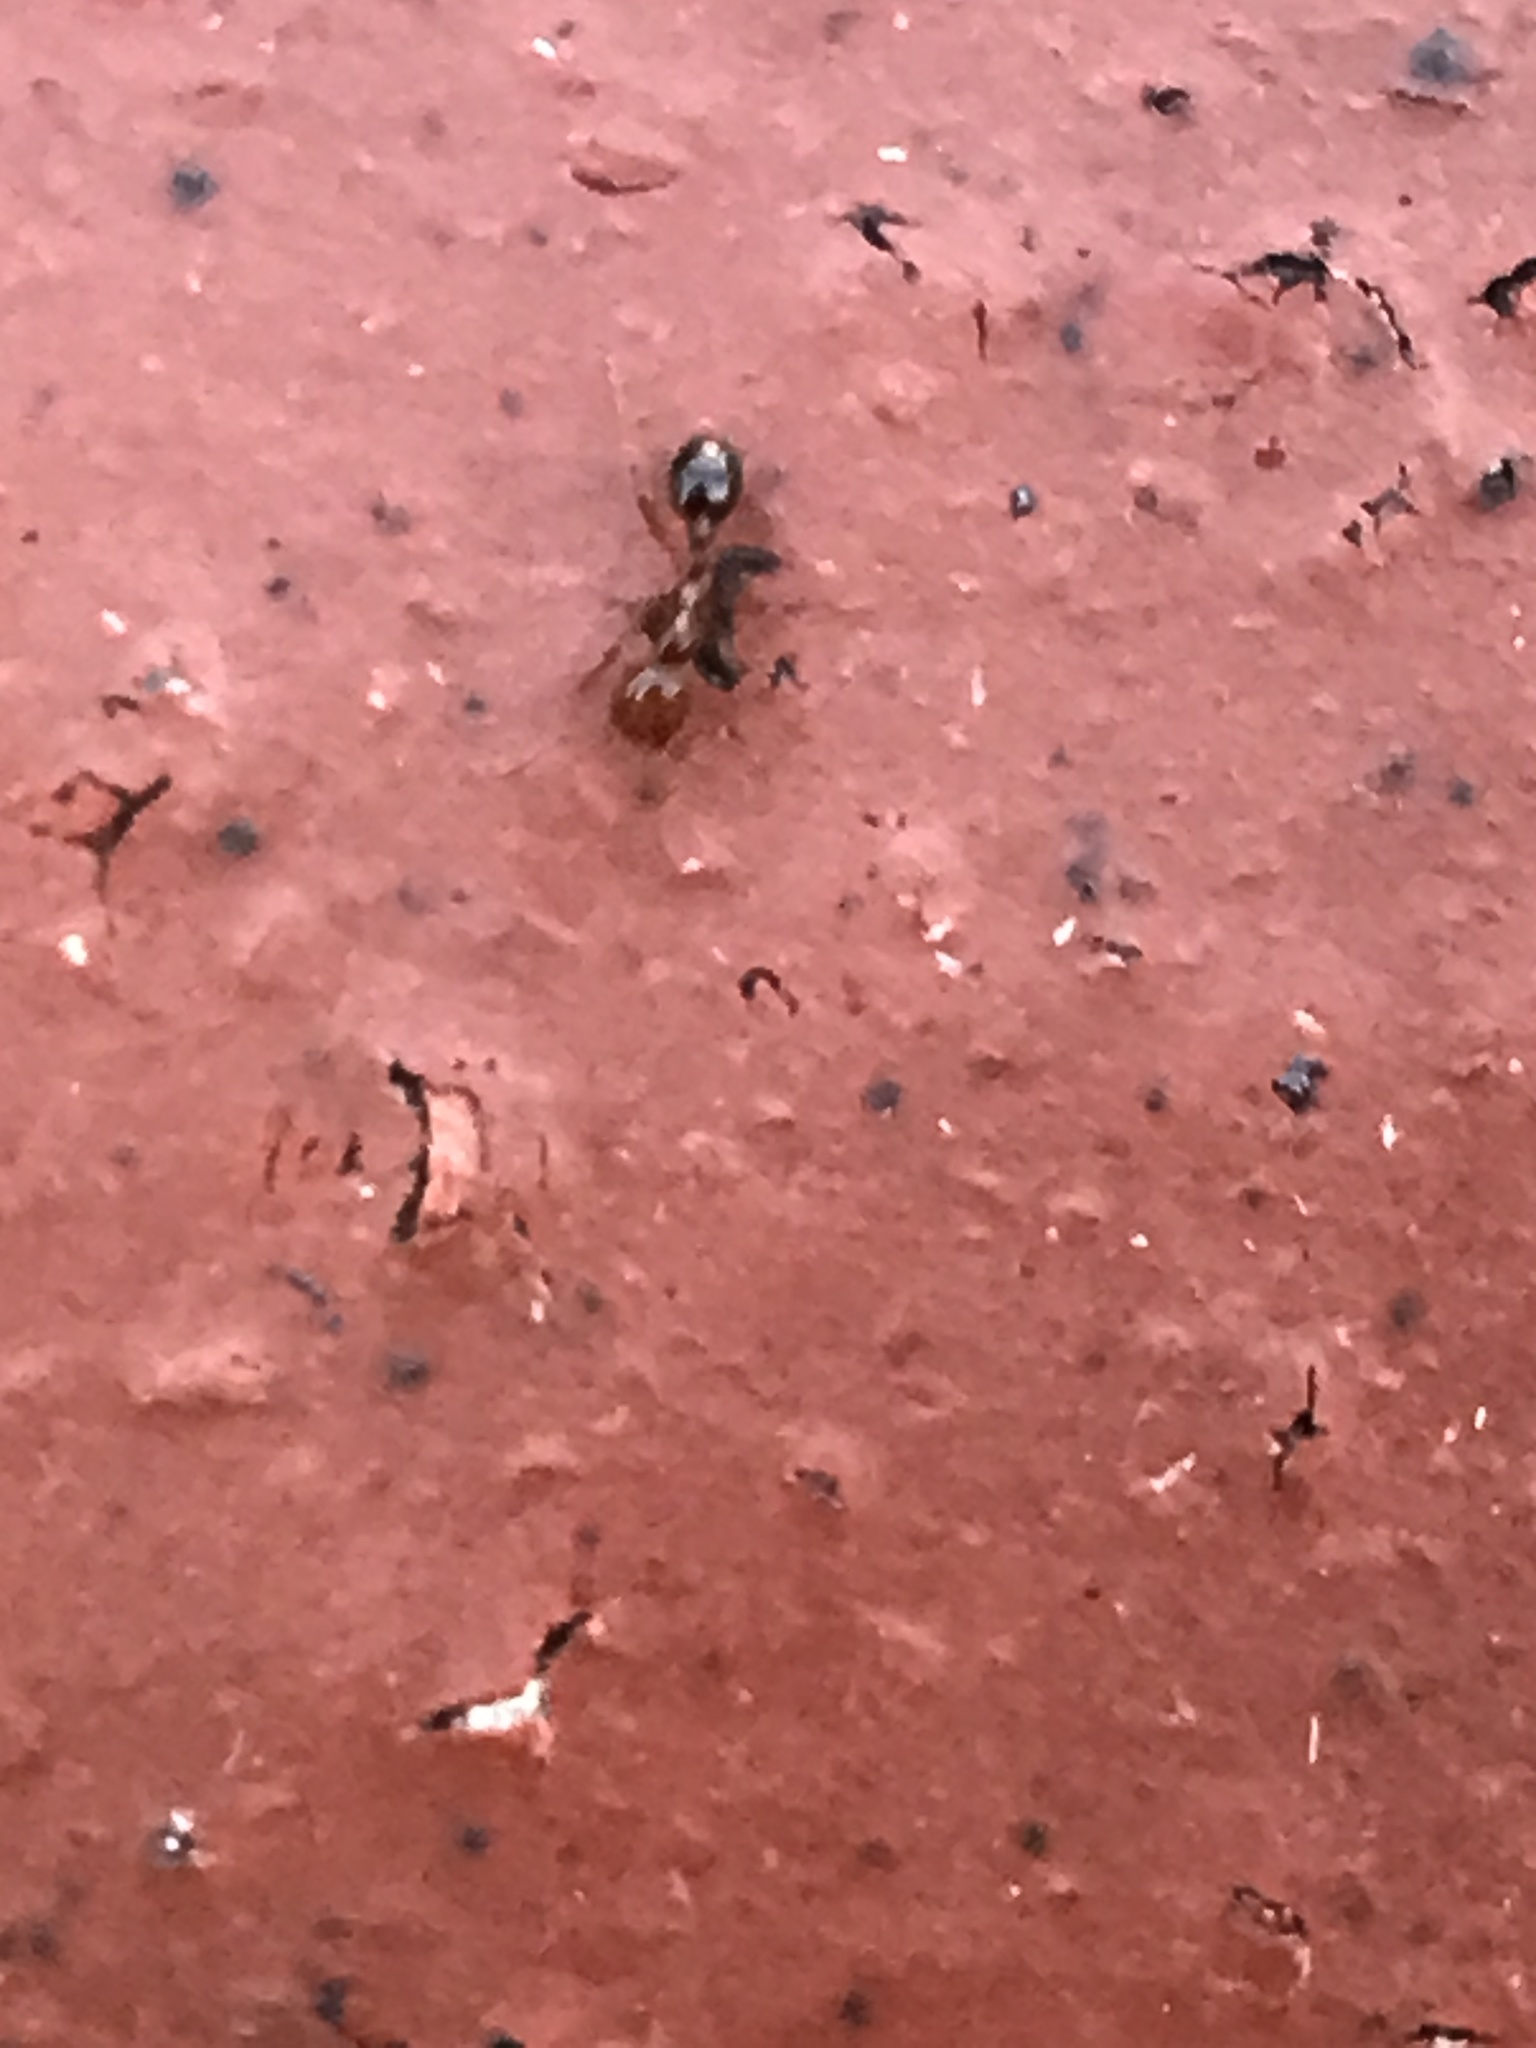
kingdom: Animalia
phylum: Arthropoda
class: Insecta
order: Hymenoptera
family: Formicidae
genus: Solenopsis
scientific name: Solenopsis invicta
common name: Red imported fire ant
